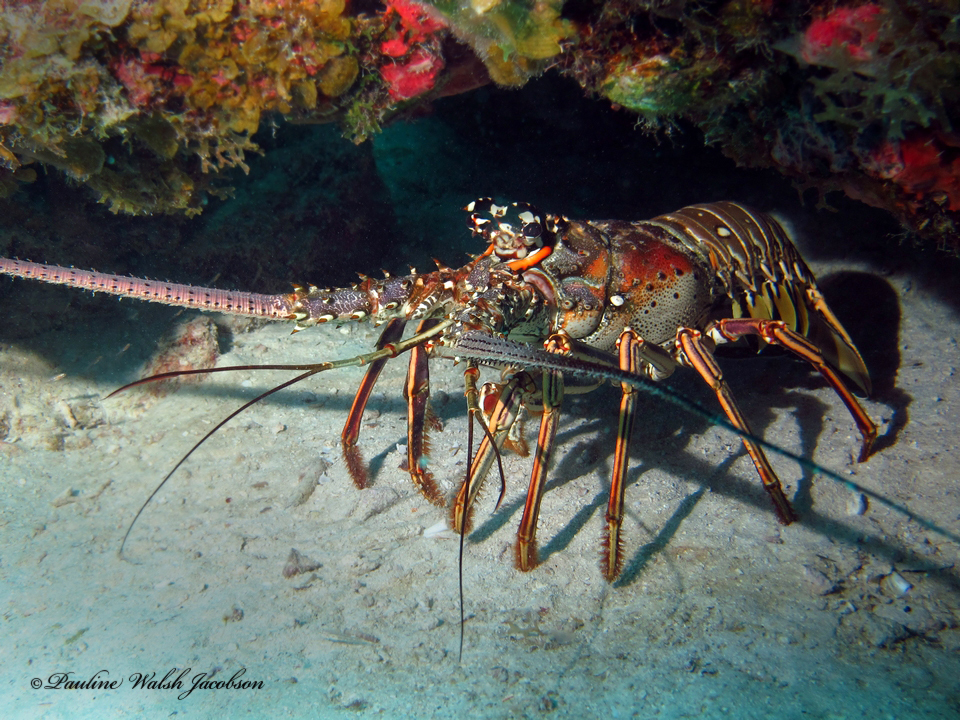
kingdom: Animalia
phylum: Arthropoda
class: Malacostraca
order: Decapoda
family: Palinuridae
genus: Panulirus
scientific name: Panulirus argus
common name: Caribbean spiny lobster
